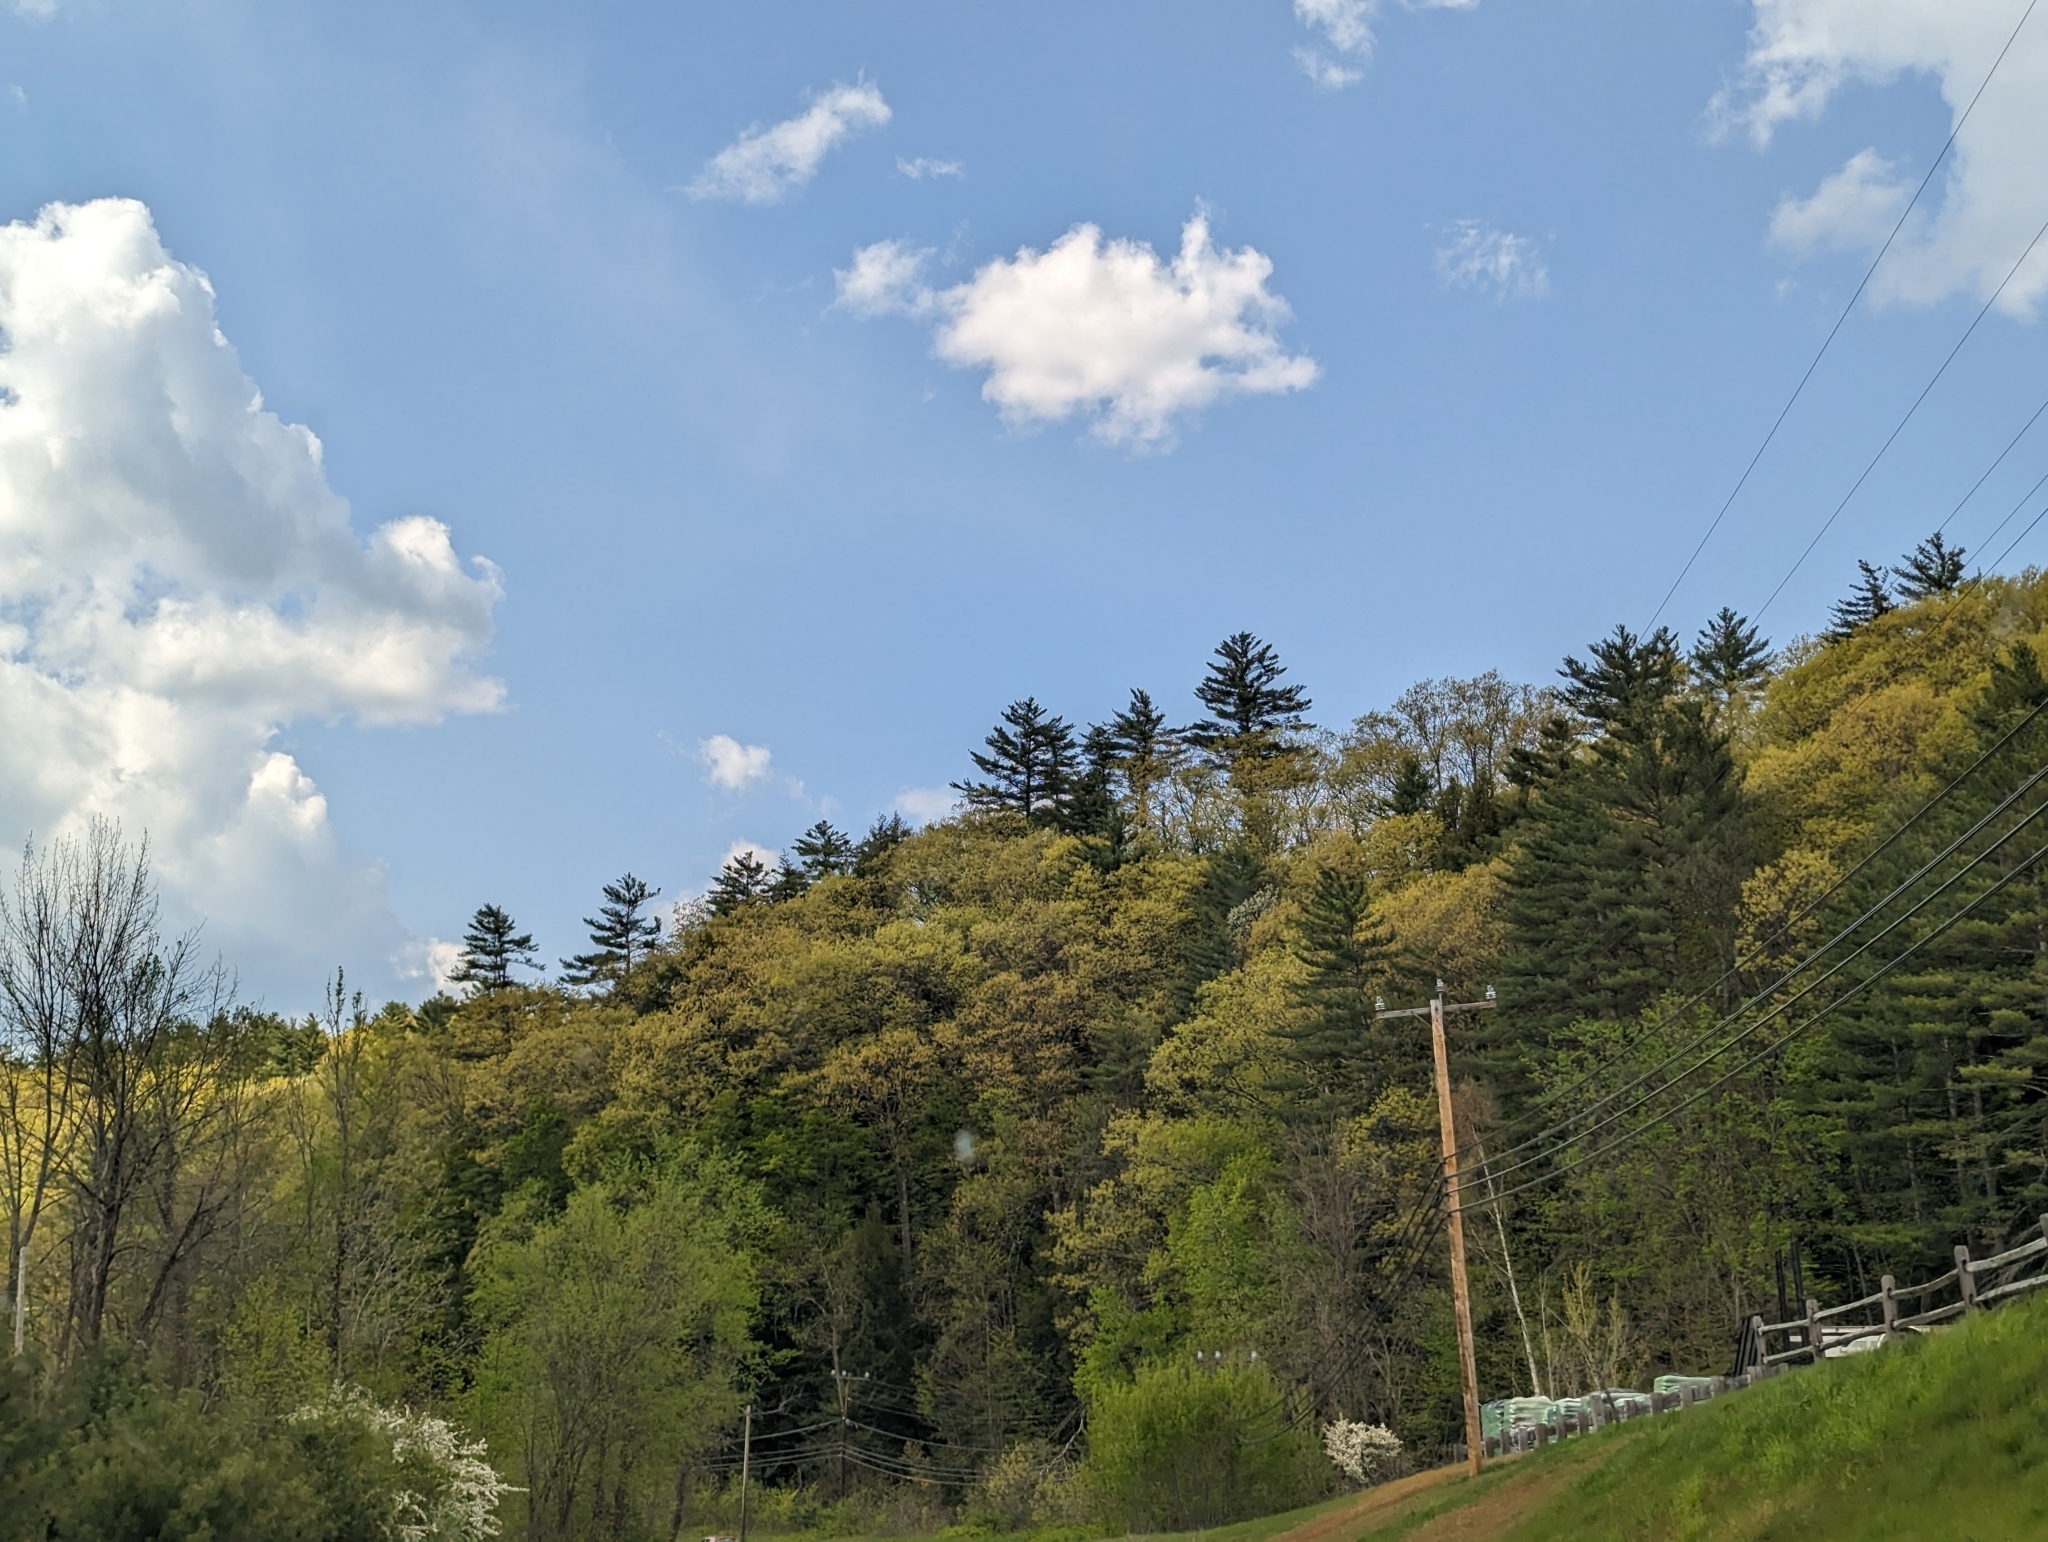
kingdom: Plantae
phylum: Tracheophyta
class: Pinopsida
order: Pinales
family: Pinaceae
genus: Pinus
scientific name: Pinus strobus
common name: Weymouth pine
